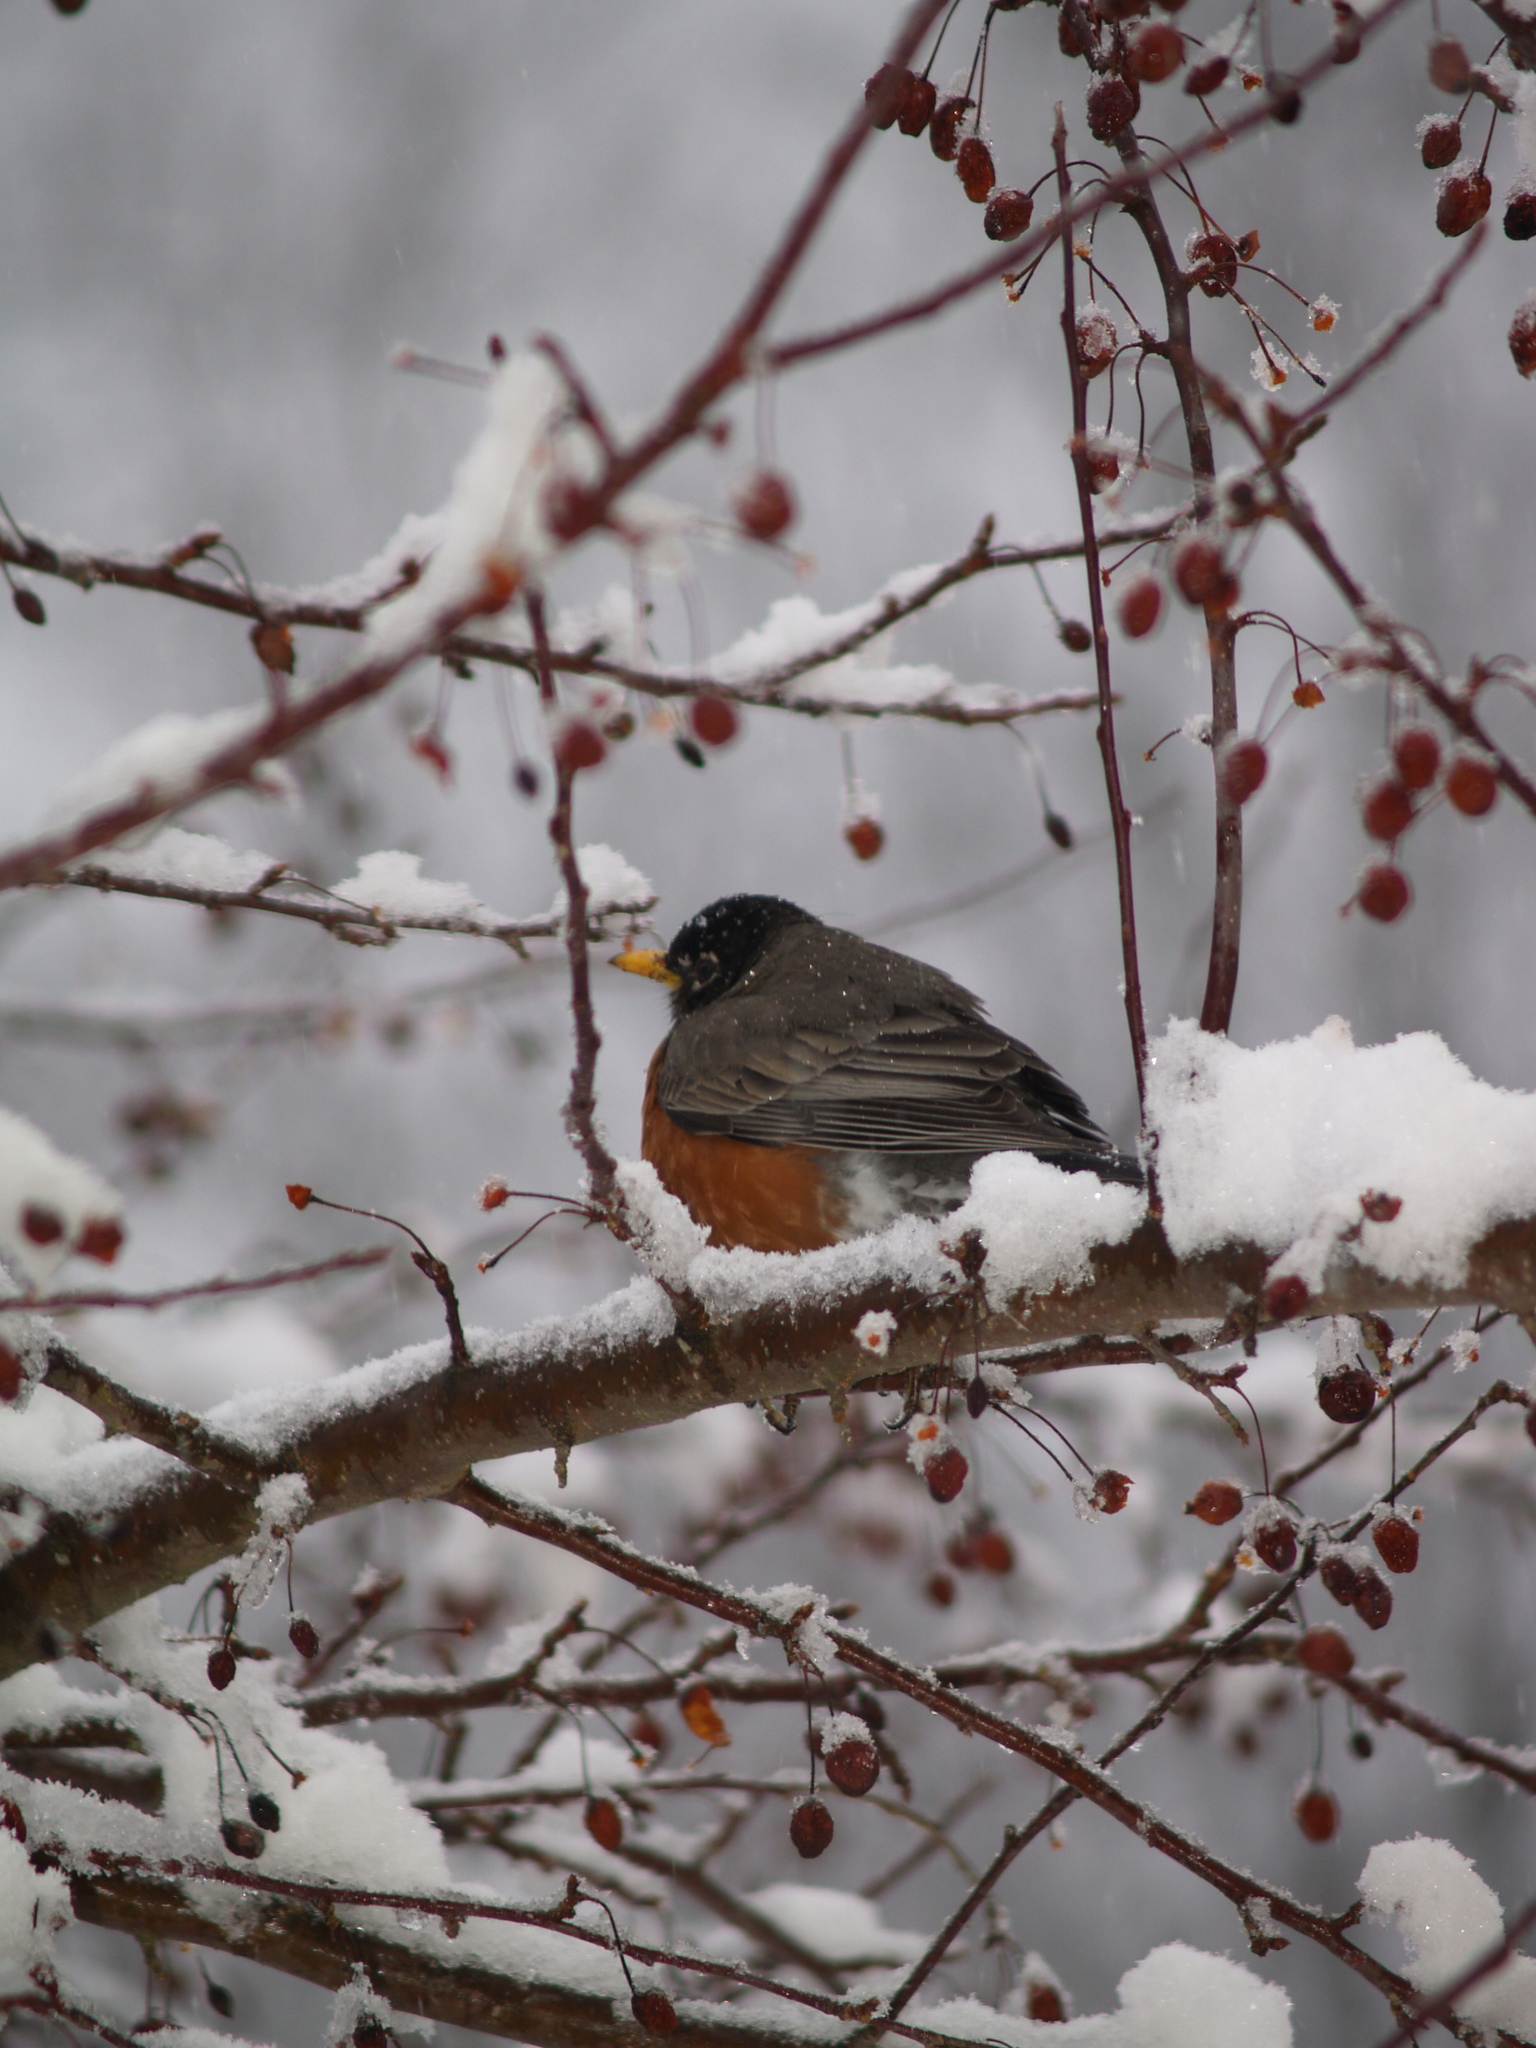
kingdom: Animalia
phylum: Chordata
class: Aves
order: Passeriformes
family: Turdidae
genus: Turdus
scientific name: Turdus migratorius
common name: American robin
